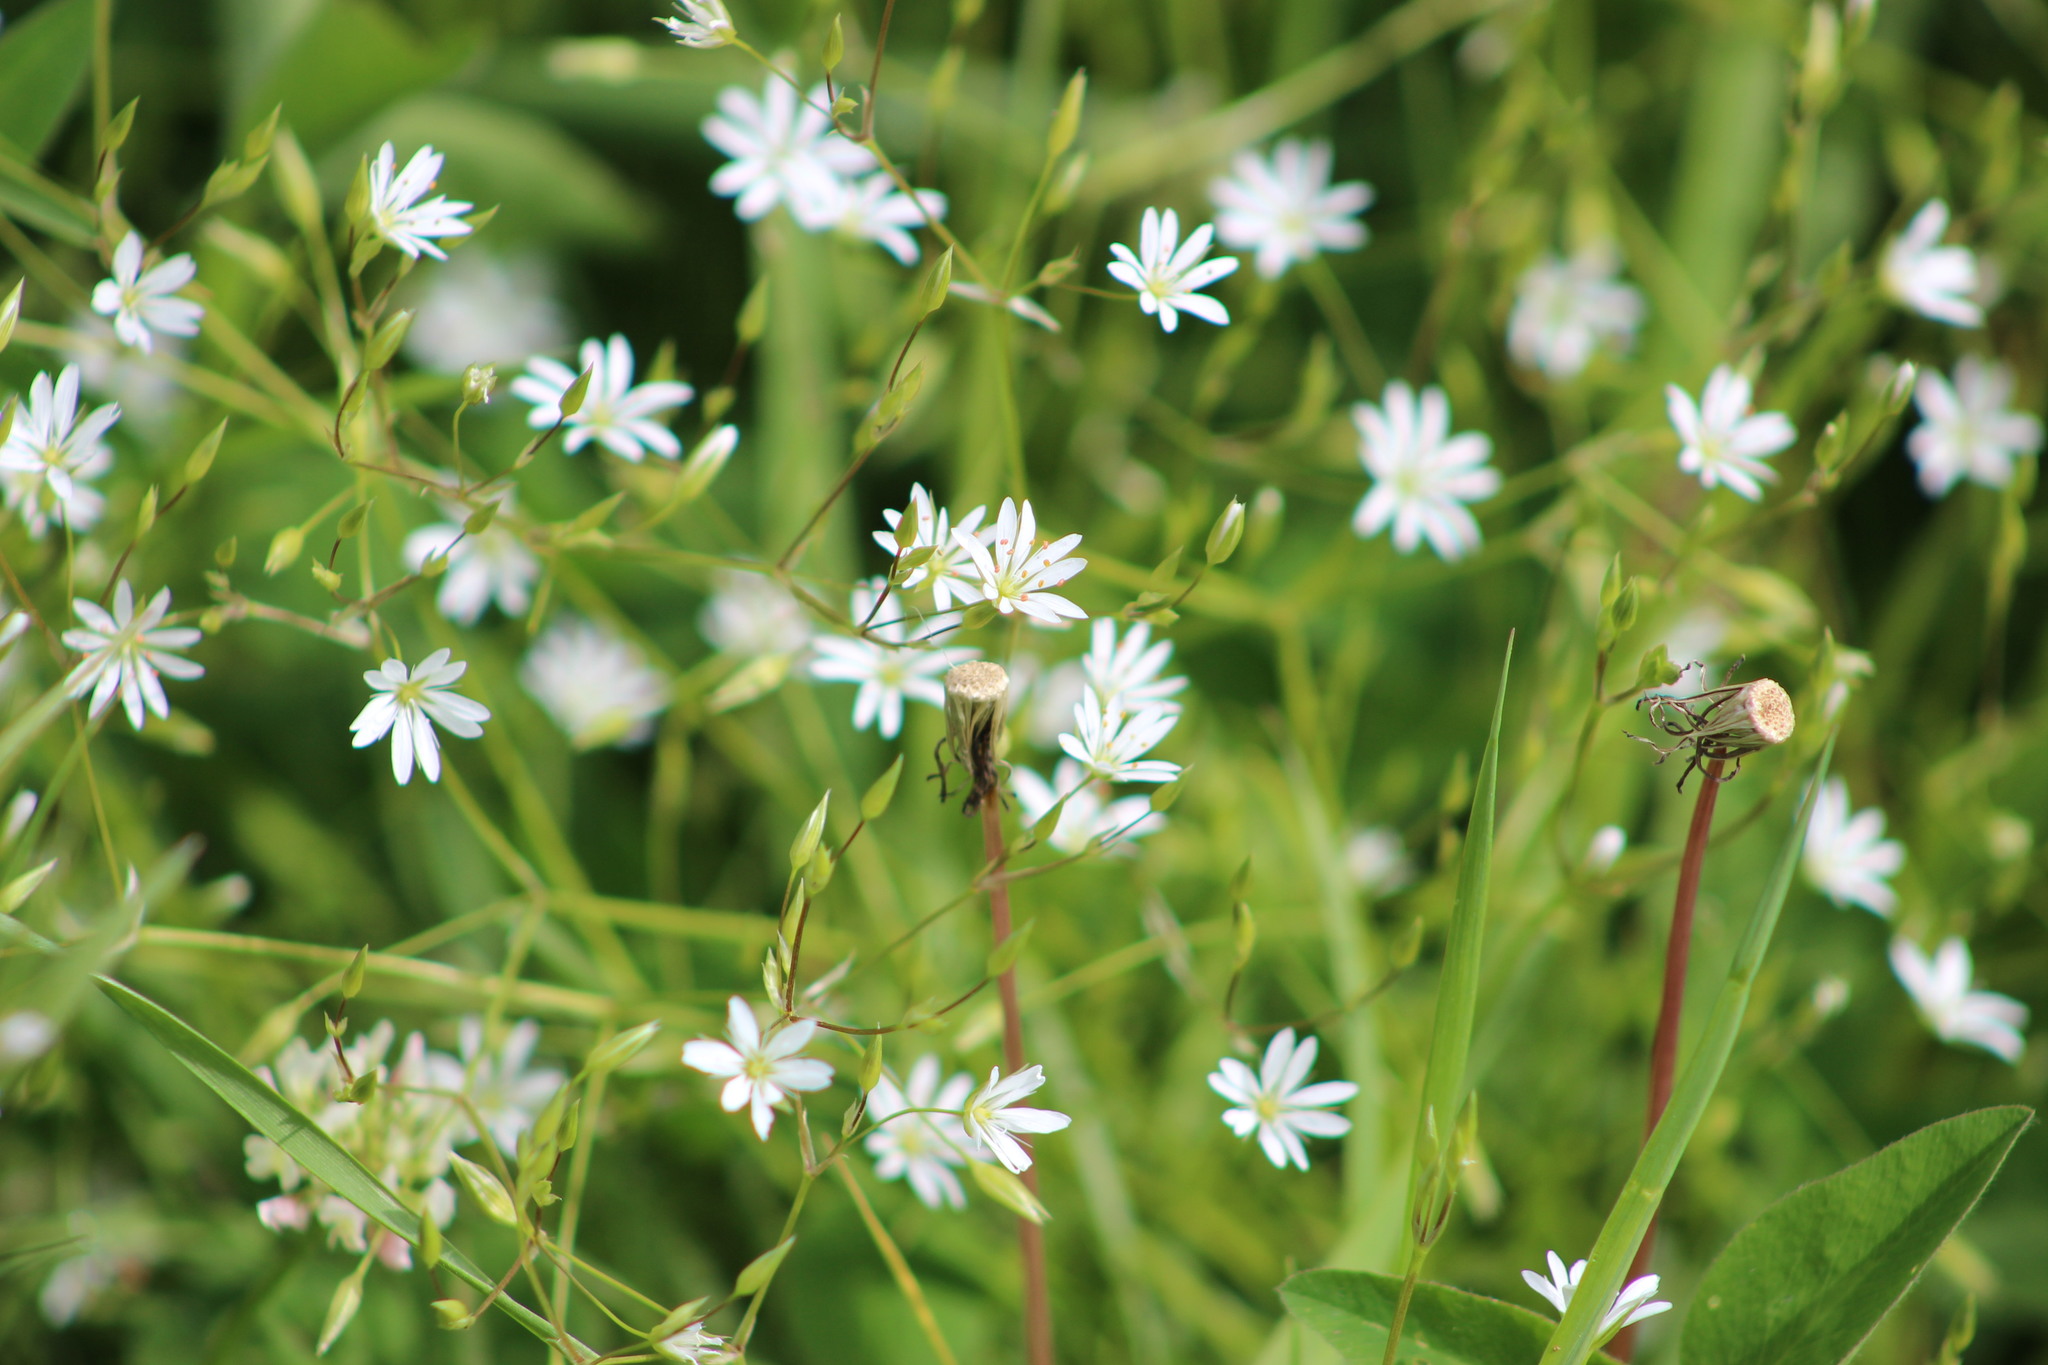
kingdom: Plantae
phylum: Tracheophyta
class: Magnoliopsida
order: Caryophyllales
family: Caryophyllaceae
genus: Stellaria
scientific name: Stellaria graminea
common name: Grass-like starwort
